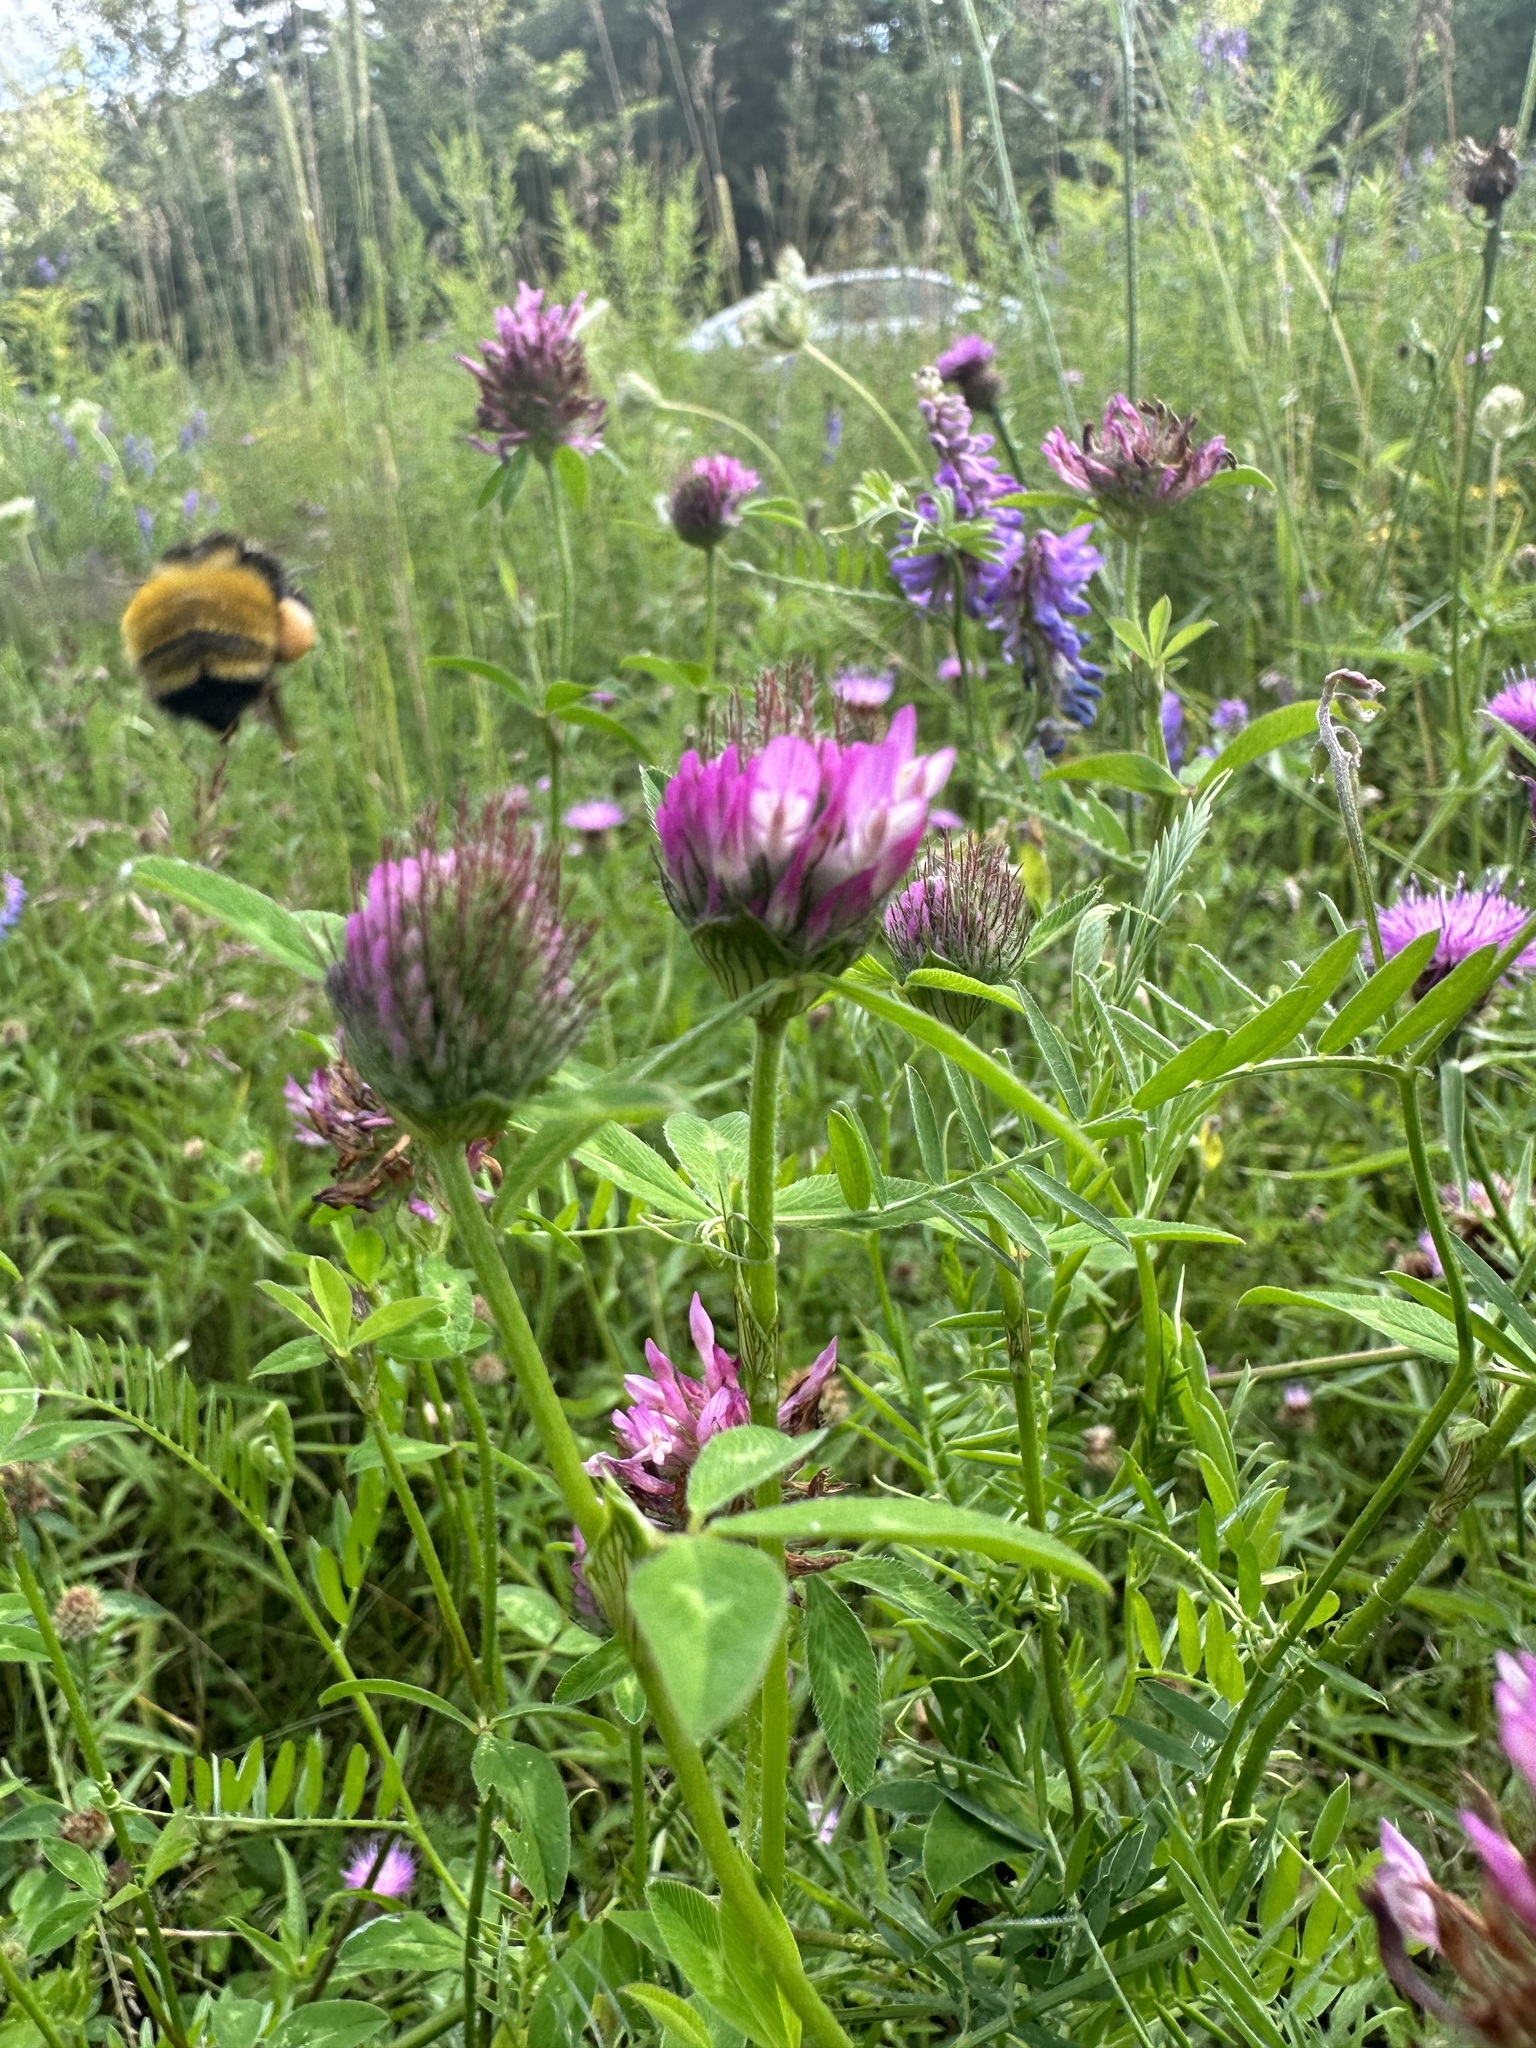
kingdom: Animalia
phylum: Arthropoda
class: Insecta
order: Hymenoptera
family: Apidae
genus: Bombus
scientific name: Bombus borealis
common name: Northern amber bumble bee
